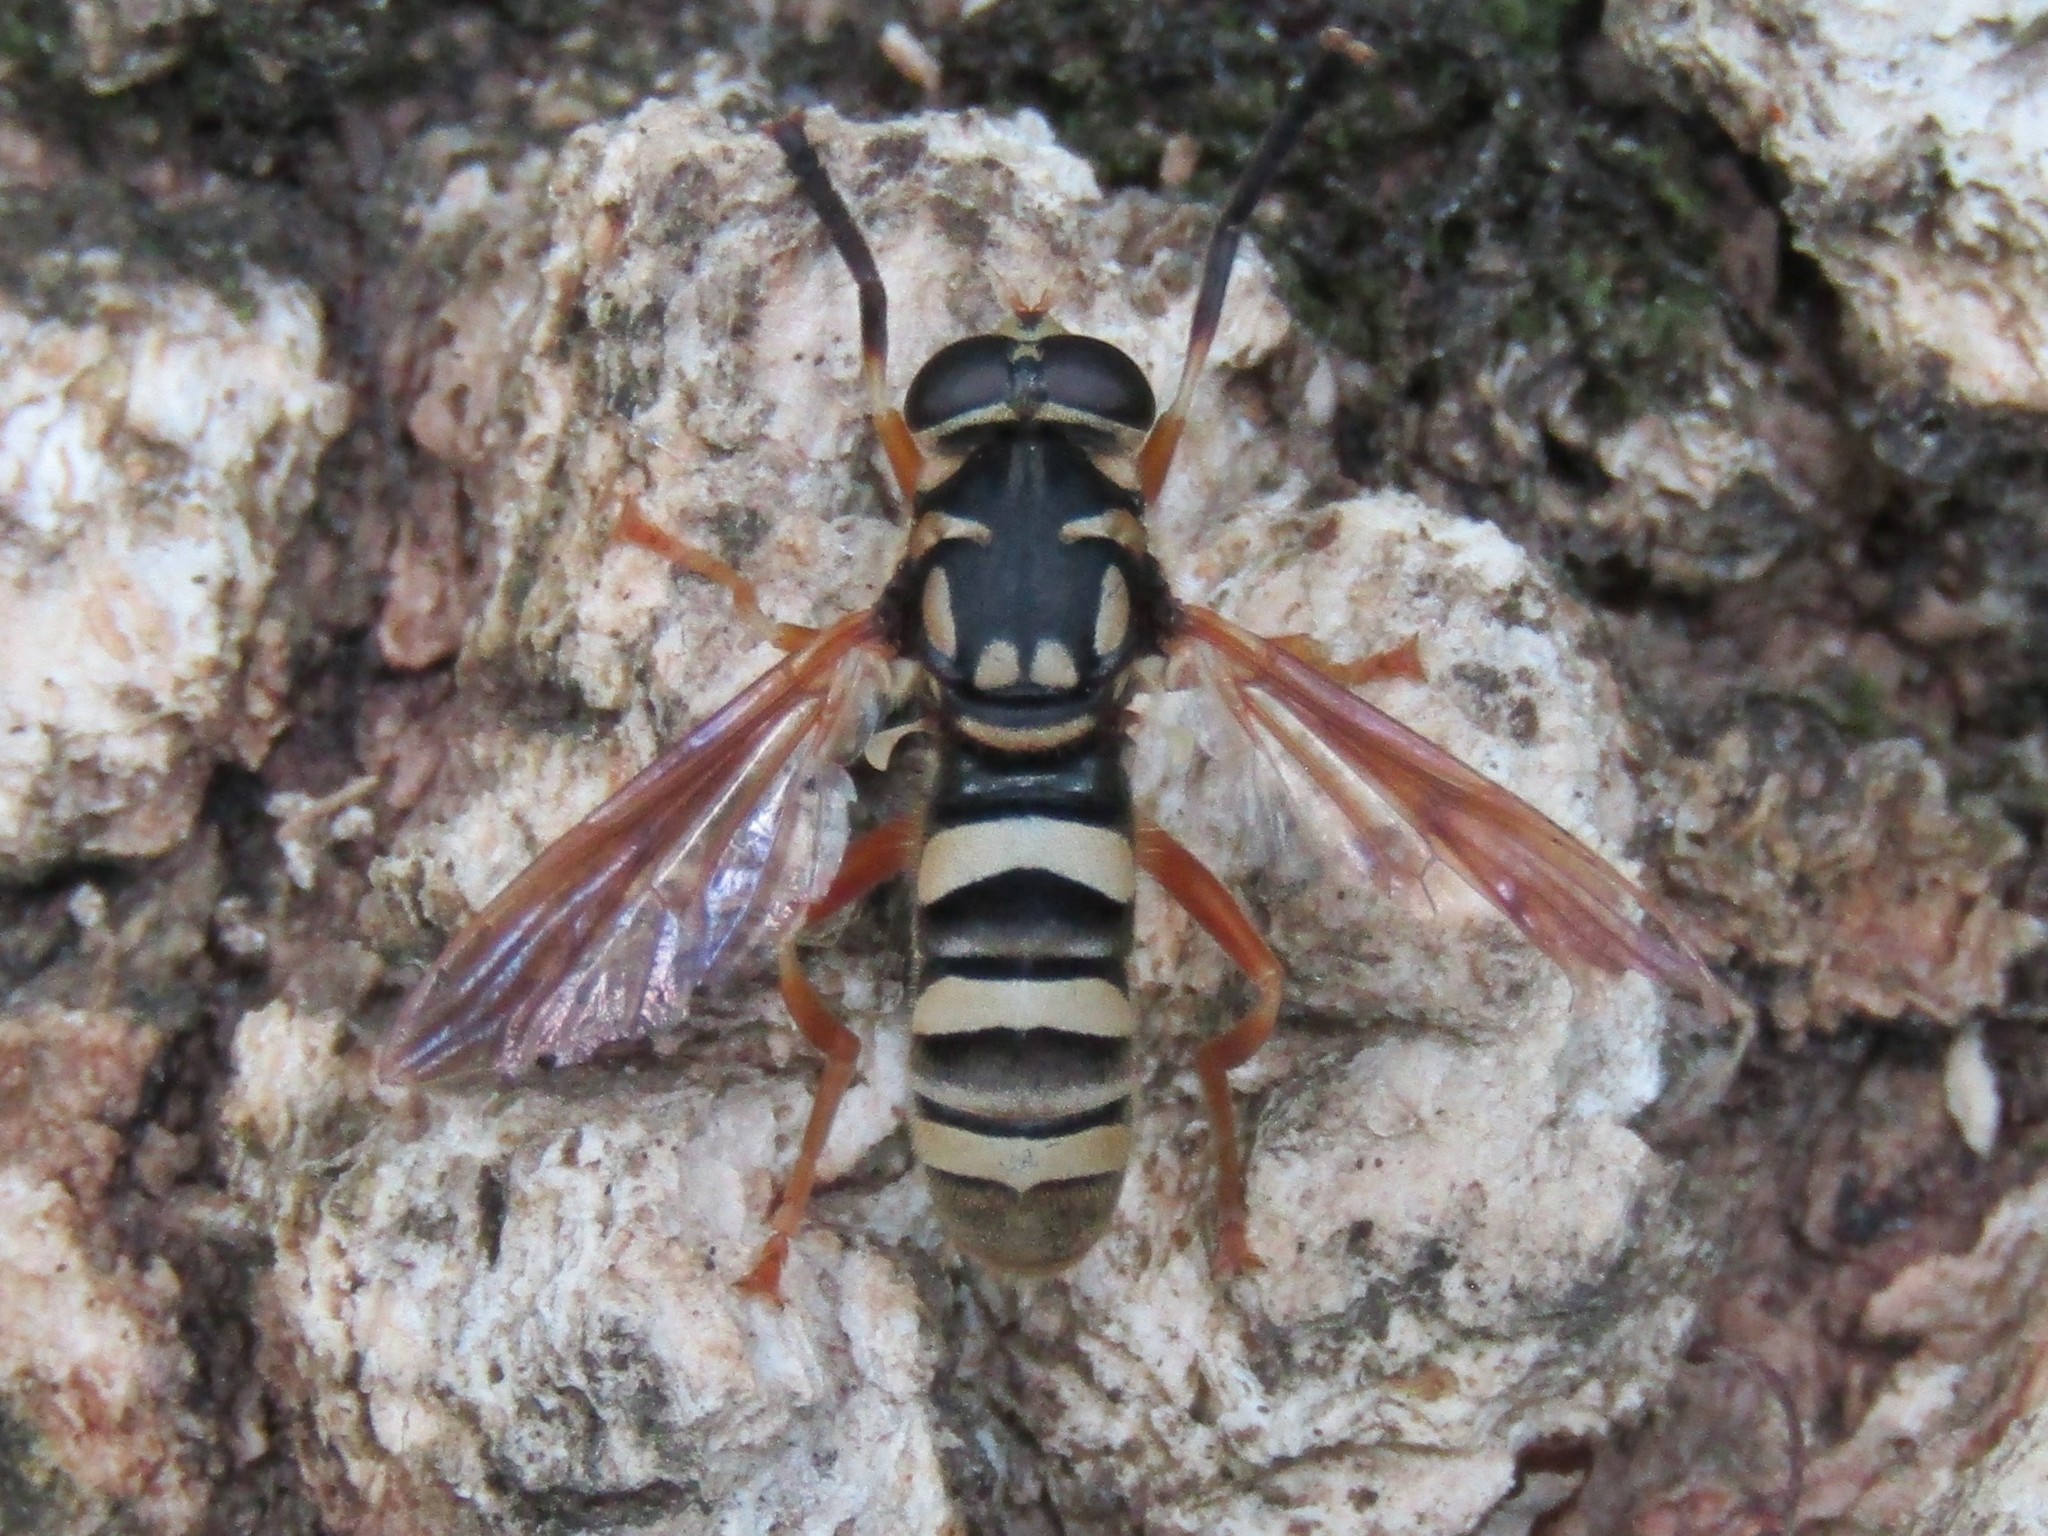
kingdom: Animalia
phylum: Arthropoda
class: Insecta
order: Diptera
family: Syrphidae
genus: Temnostoma
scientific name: Temnostoma daochum
